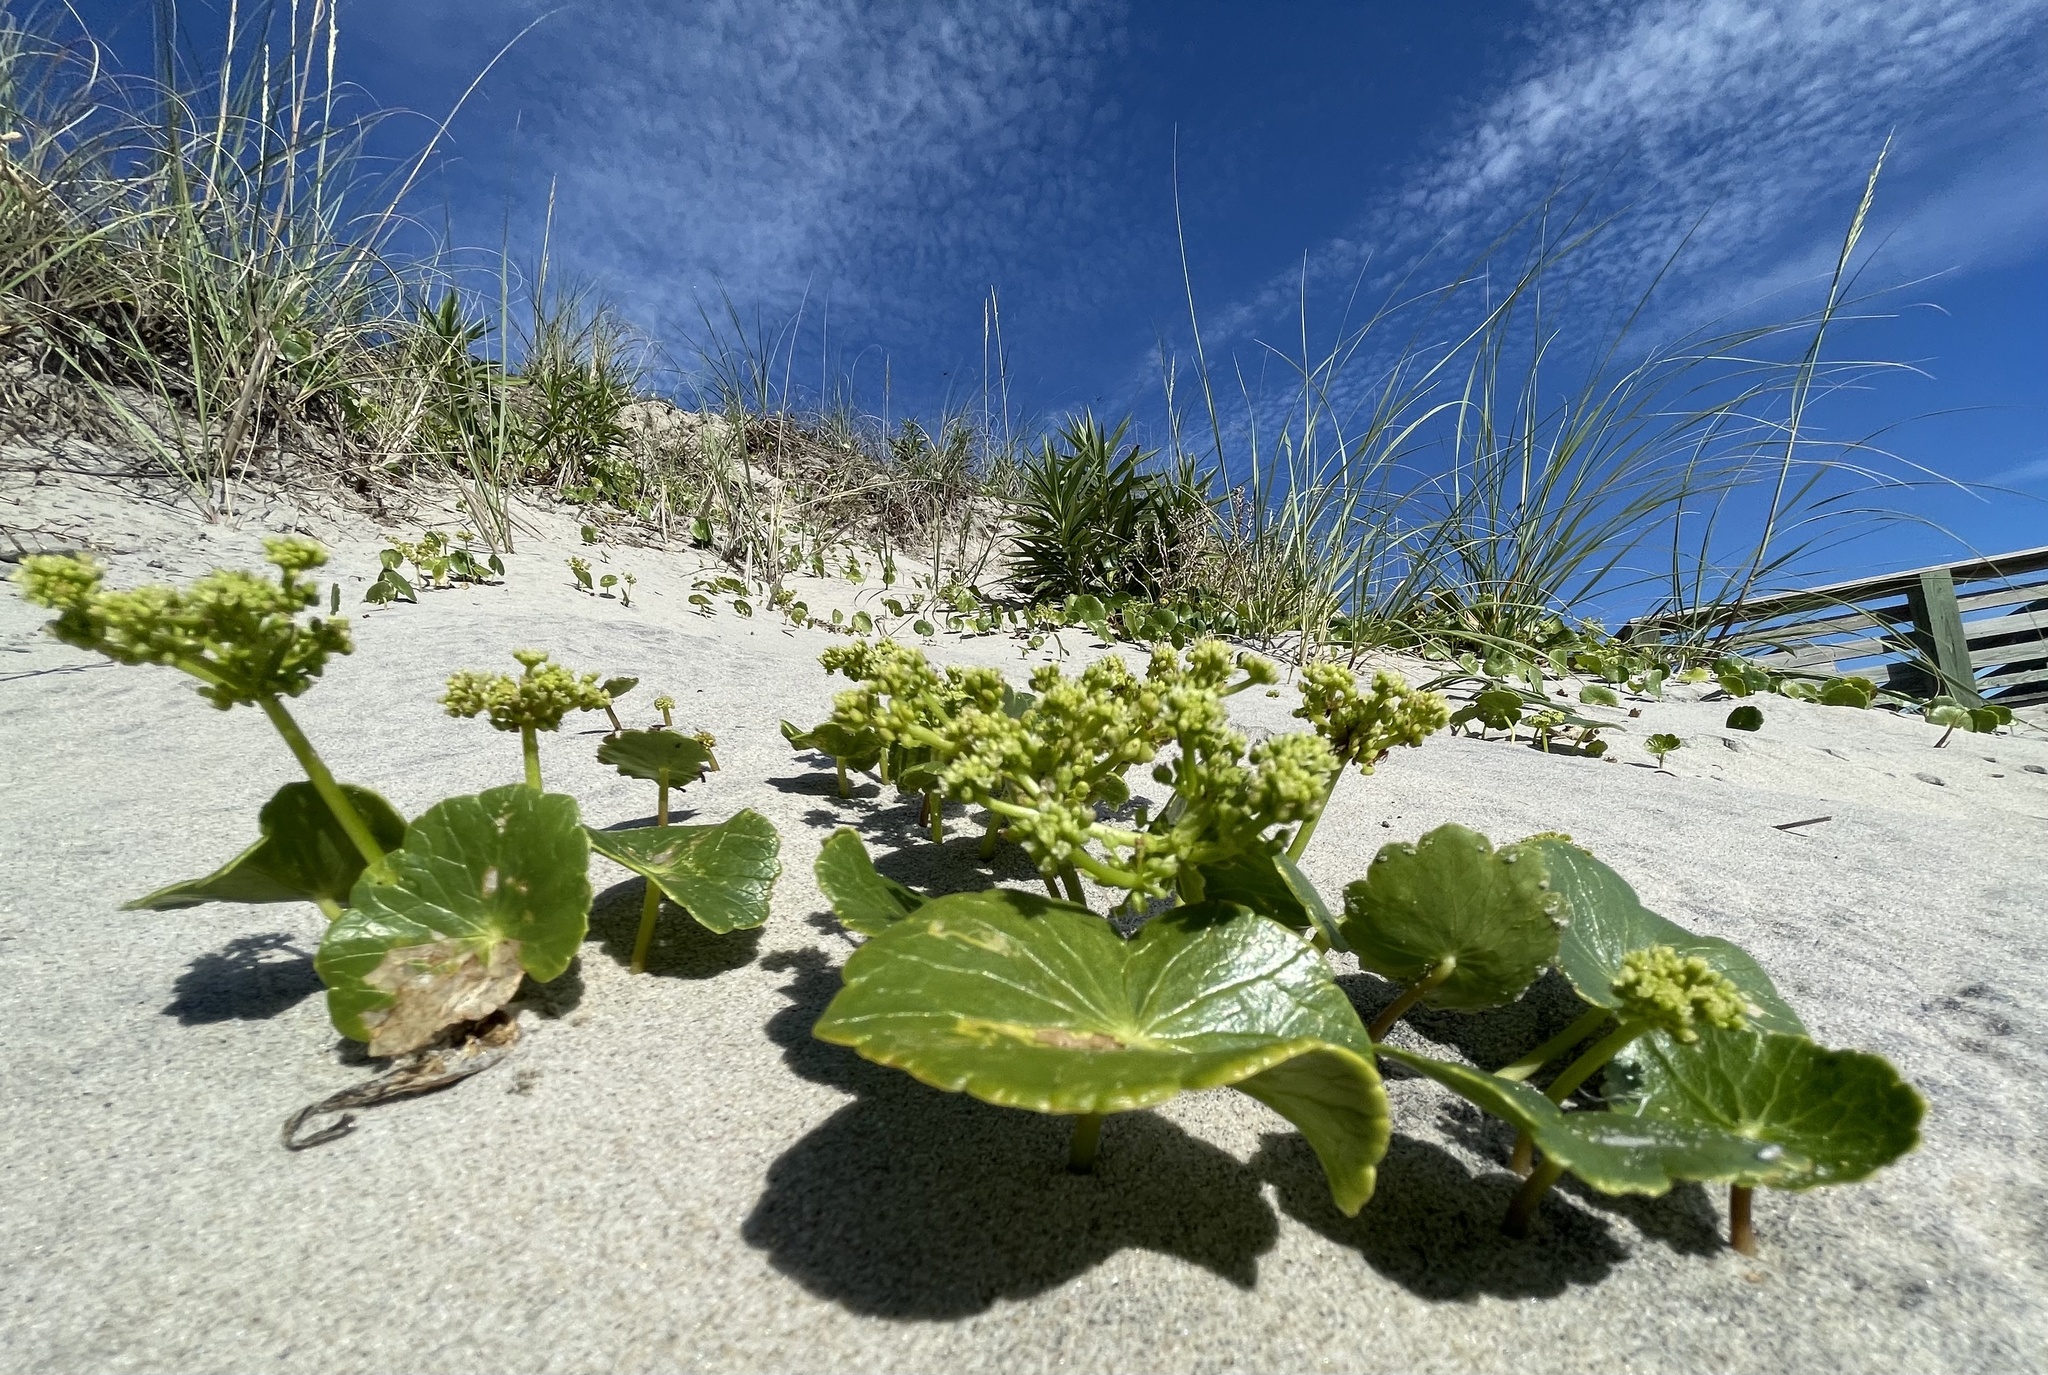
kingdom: Plantae
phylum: Tracheophyta
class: Magnoliopsida
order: Apiales
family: Araliaceae
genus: Hydrocotyle
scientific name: Hydrocotyle bonariensis
